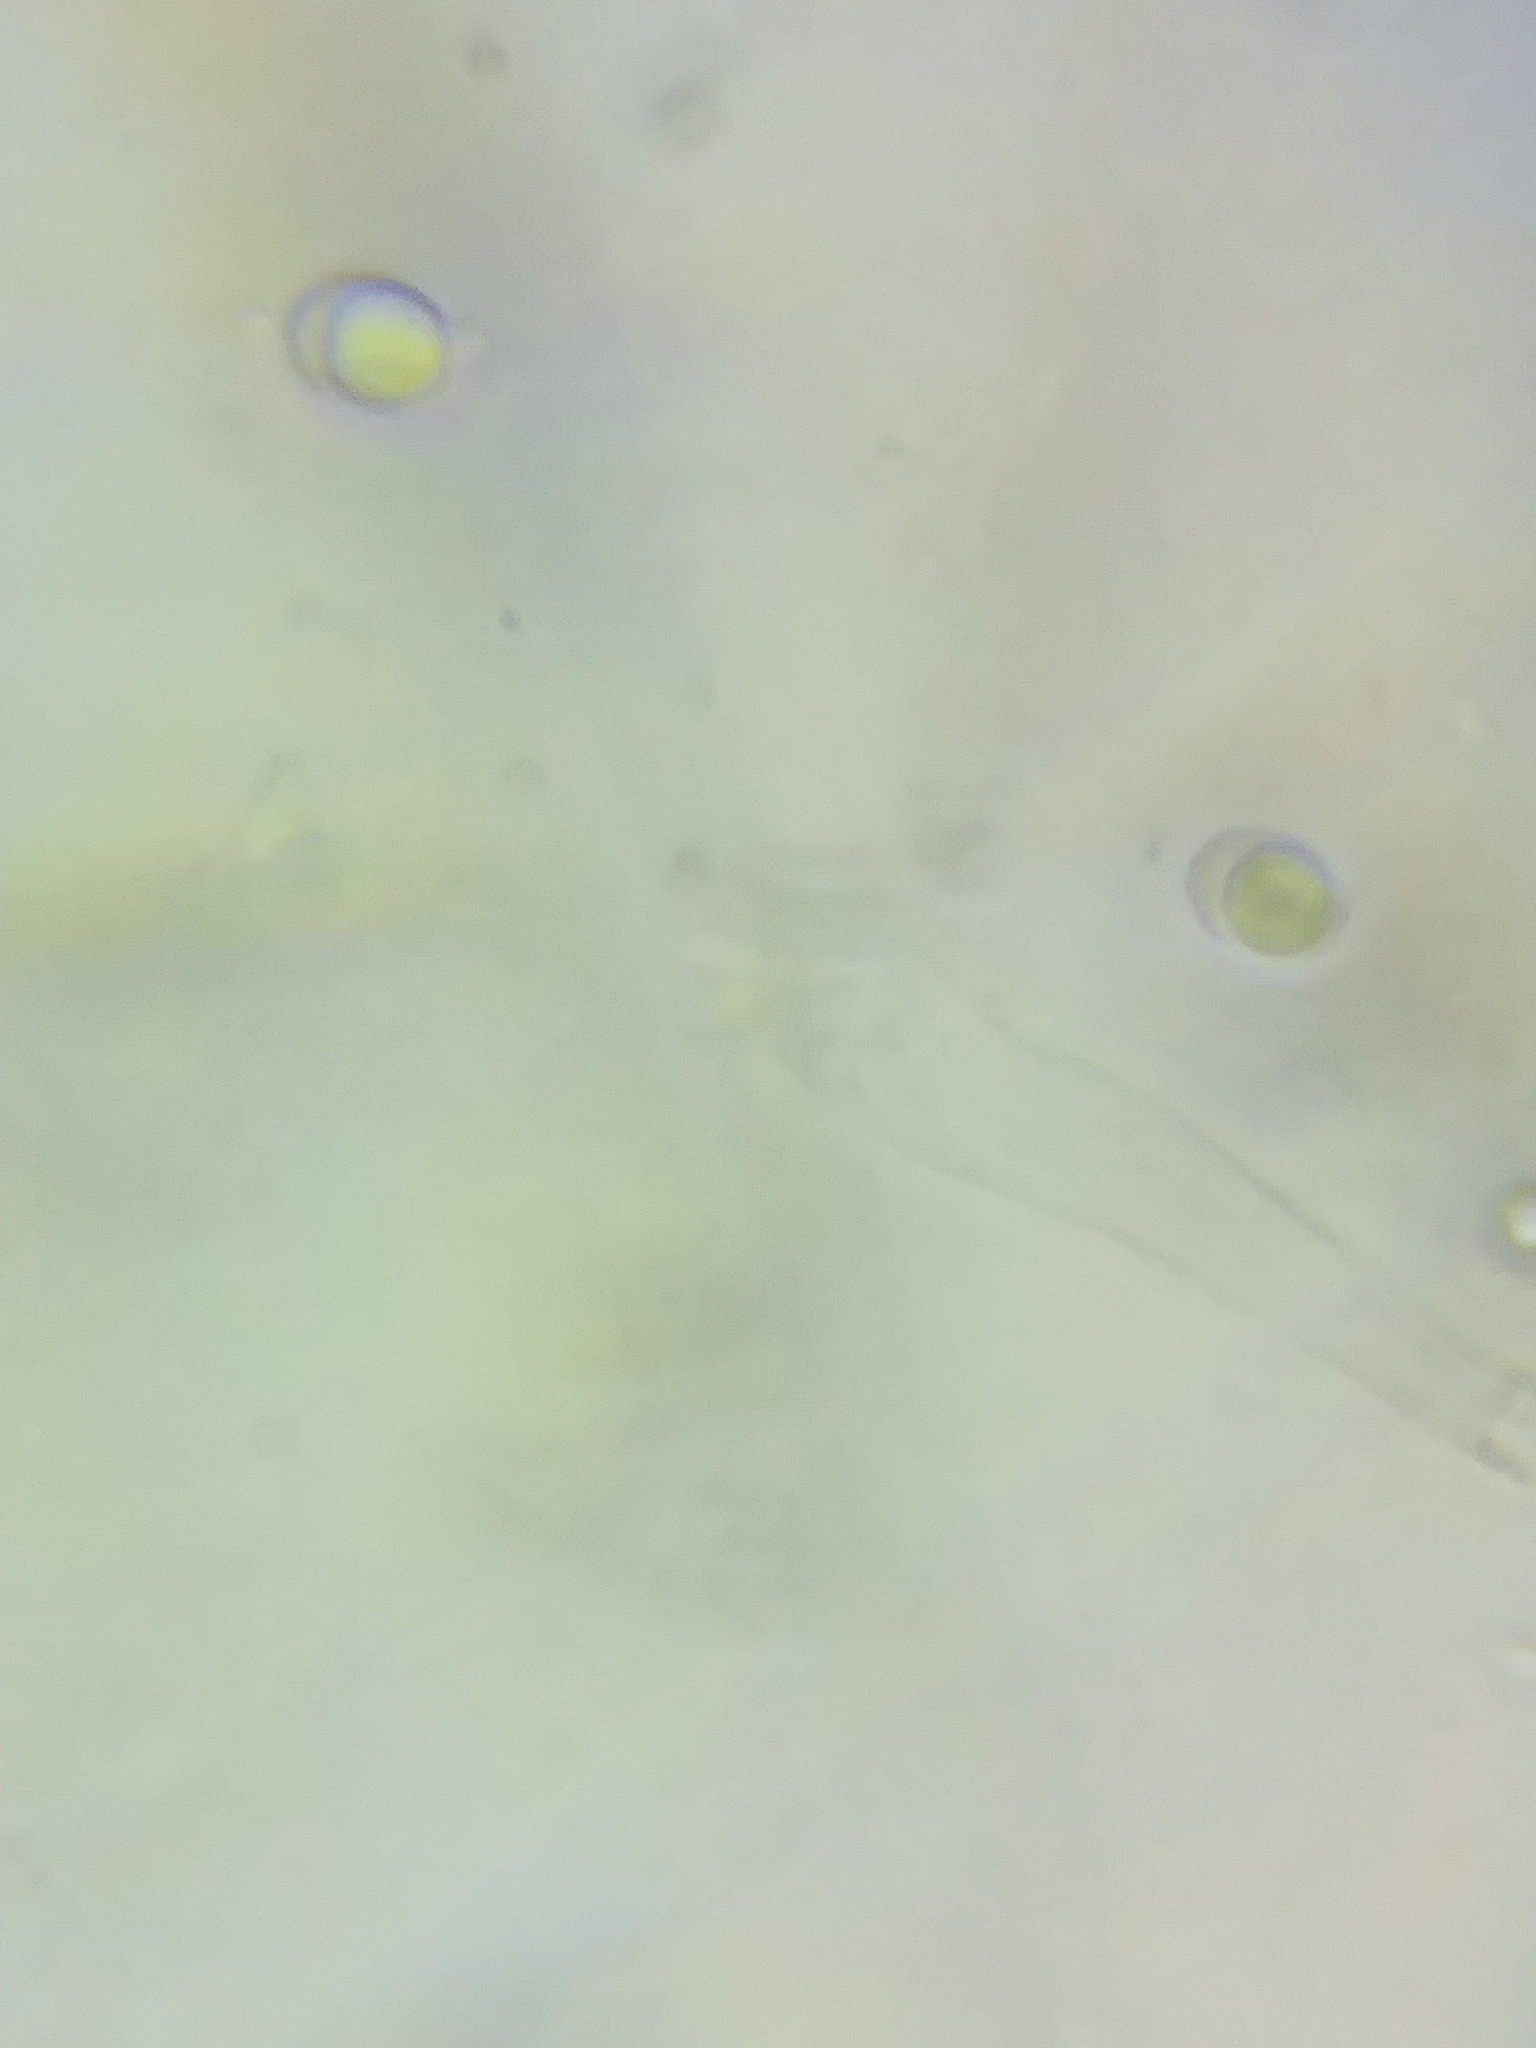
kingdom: Fungi
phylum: Basidiomycota
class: Agaricomycetes
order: Agaricales
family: Tricholomataceae
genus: Tricholoma
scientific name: Tricholoma stans
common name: Upright knight
